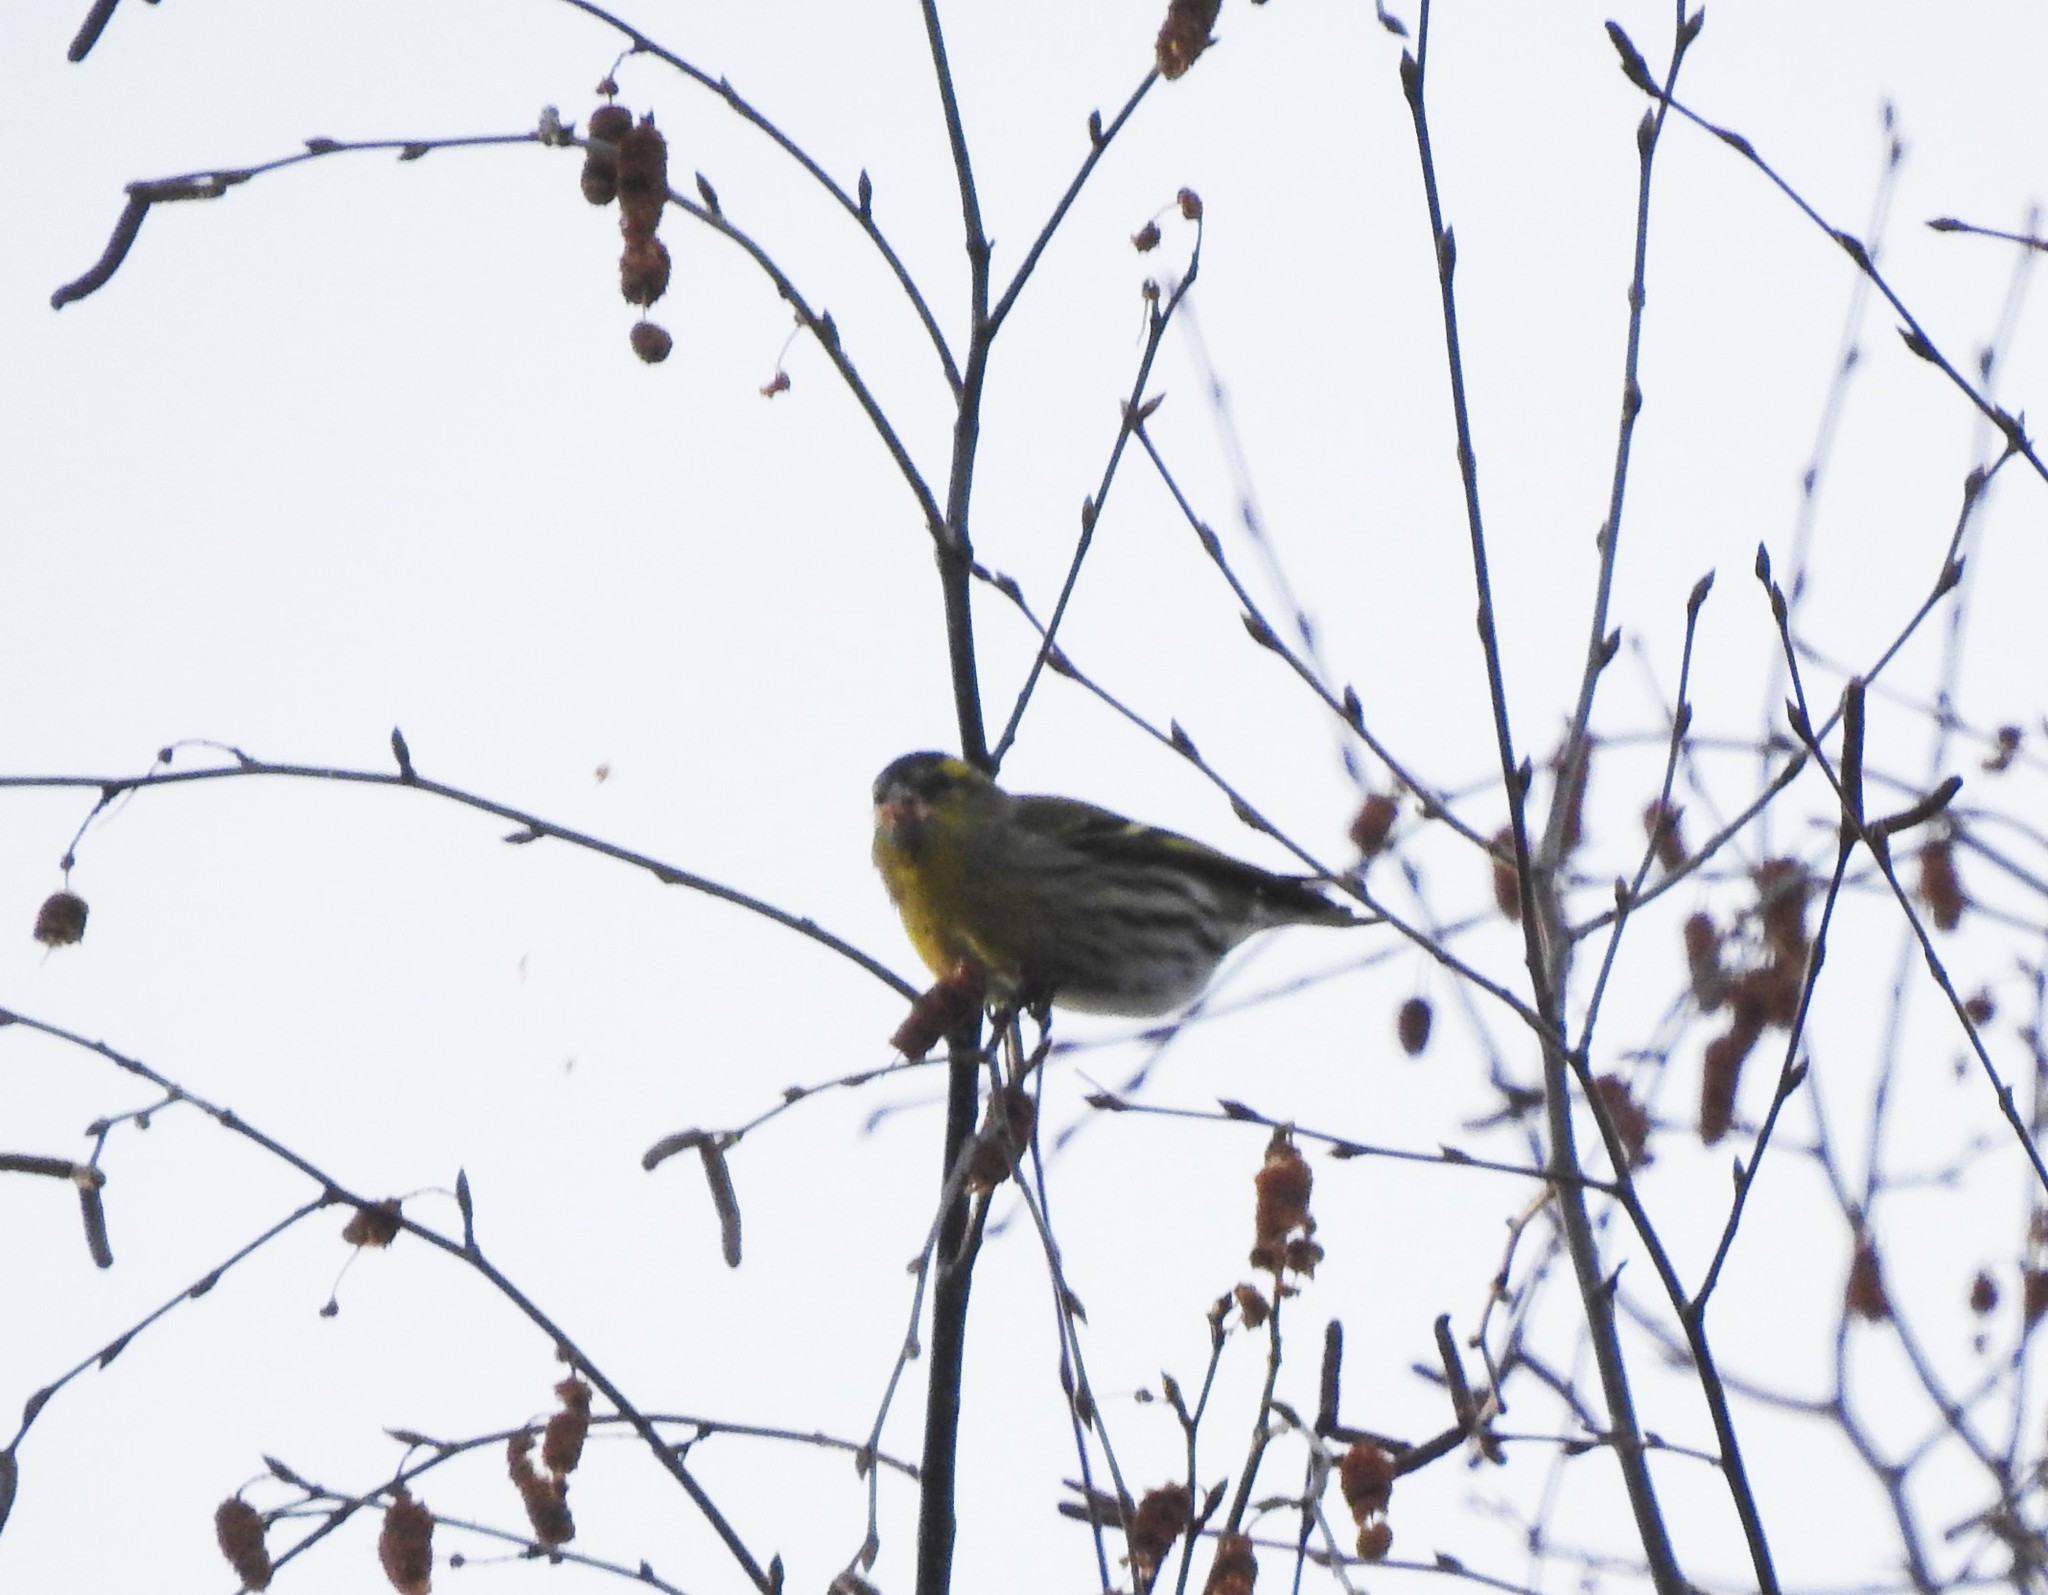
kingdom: Animalia
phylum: Chordata
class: Aves
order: Passeriformes
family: Fringillidae
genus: Spinus
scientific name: Spinus spinus
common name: Eurasian siskin
